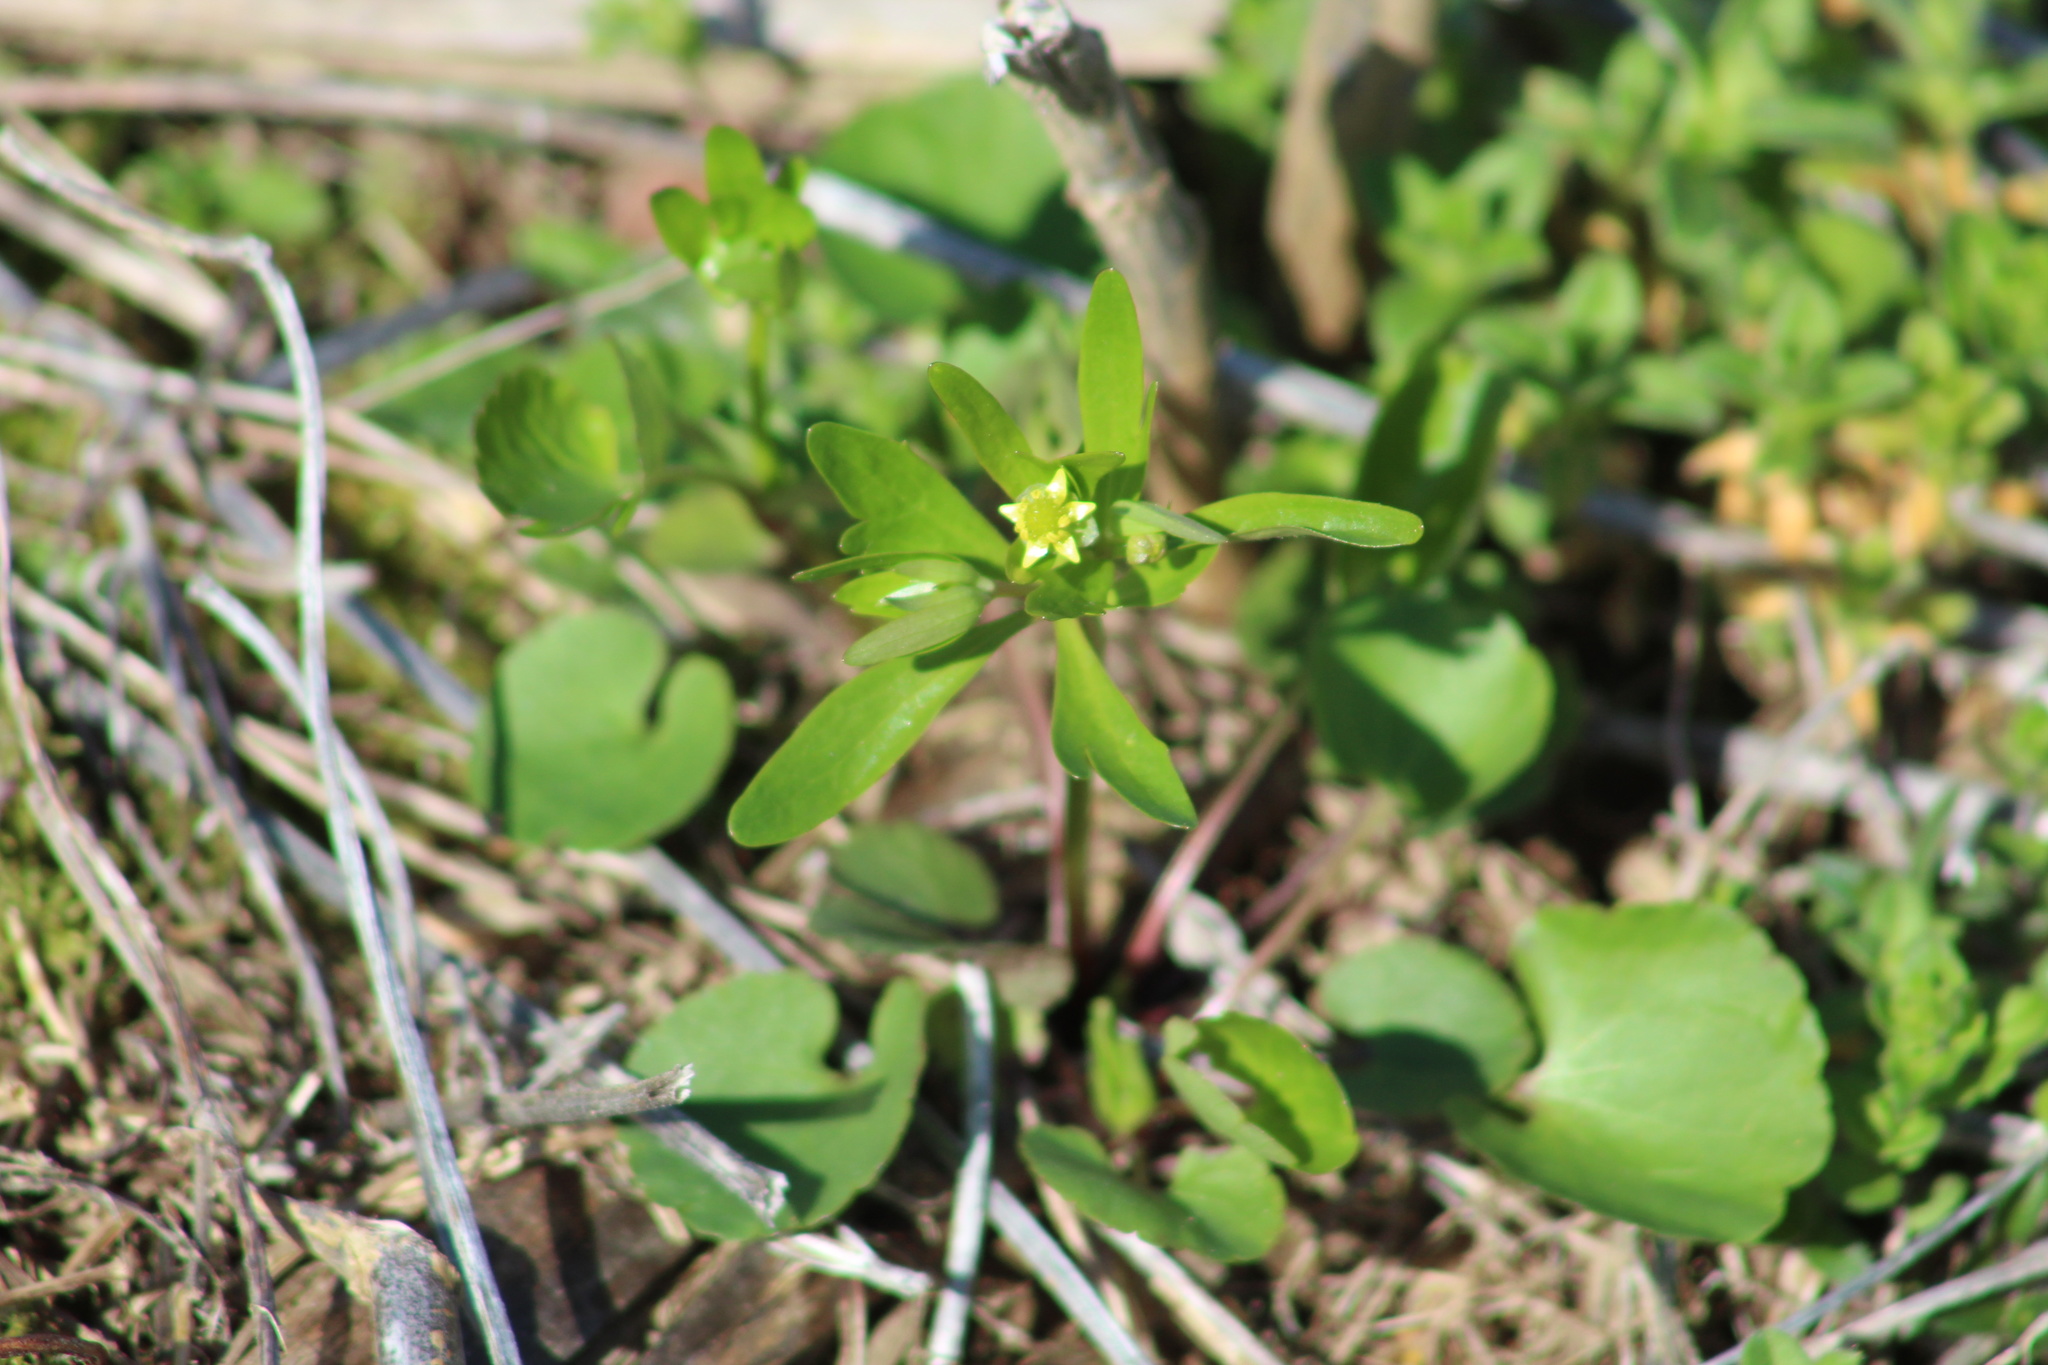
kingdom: Plantae
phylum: Tracheophyta
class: Magnoliopsida
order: Ranunculales
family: Ranunculaceae
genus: Ranunculus
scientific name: Ranunculus abortivus
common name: Early wood buttercup
